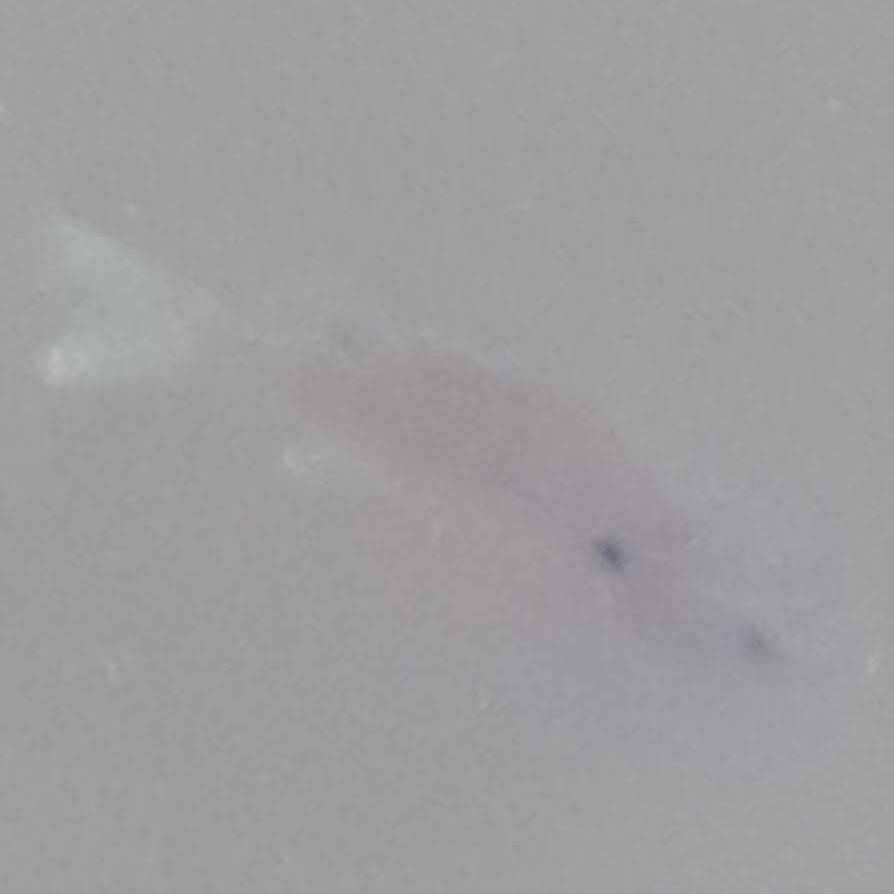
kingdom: Animalia
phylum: Chordata
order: Perciformes
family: Centrarchidae
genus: Lepomis
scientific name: Lepomis
